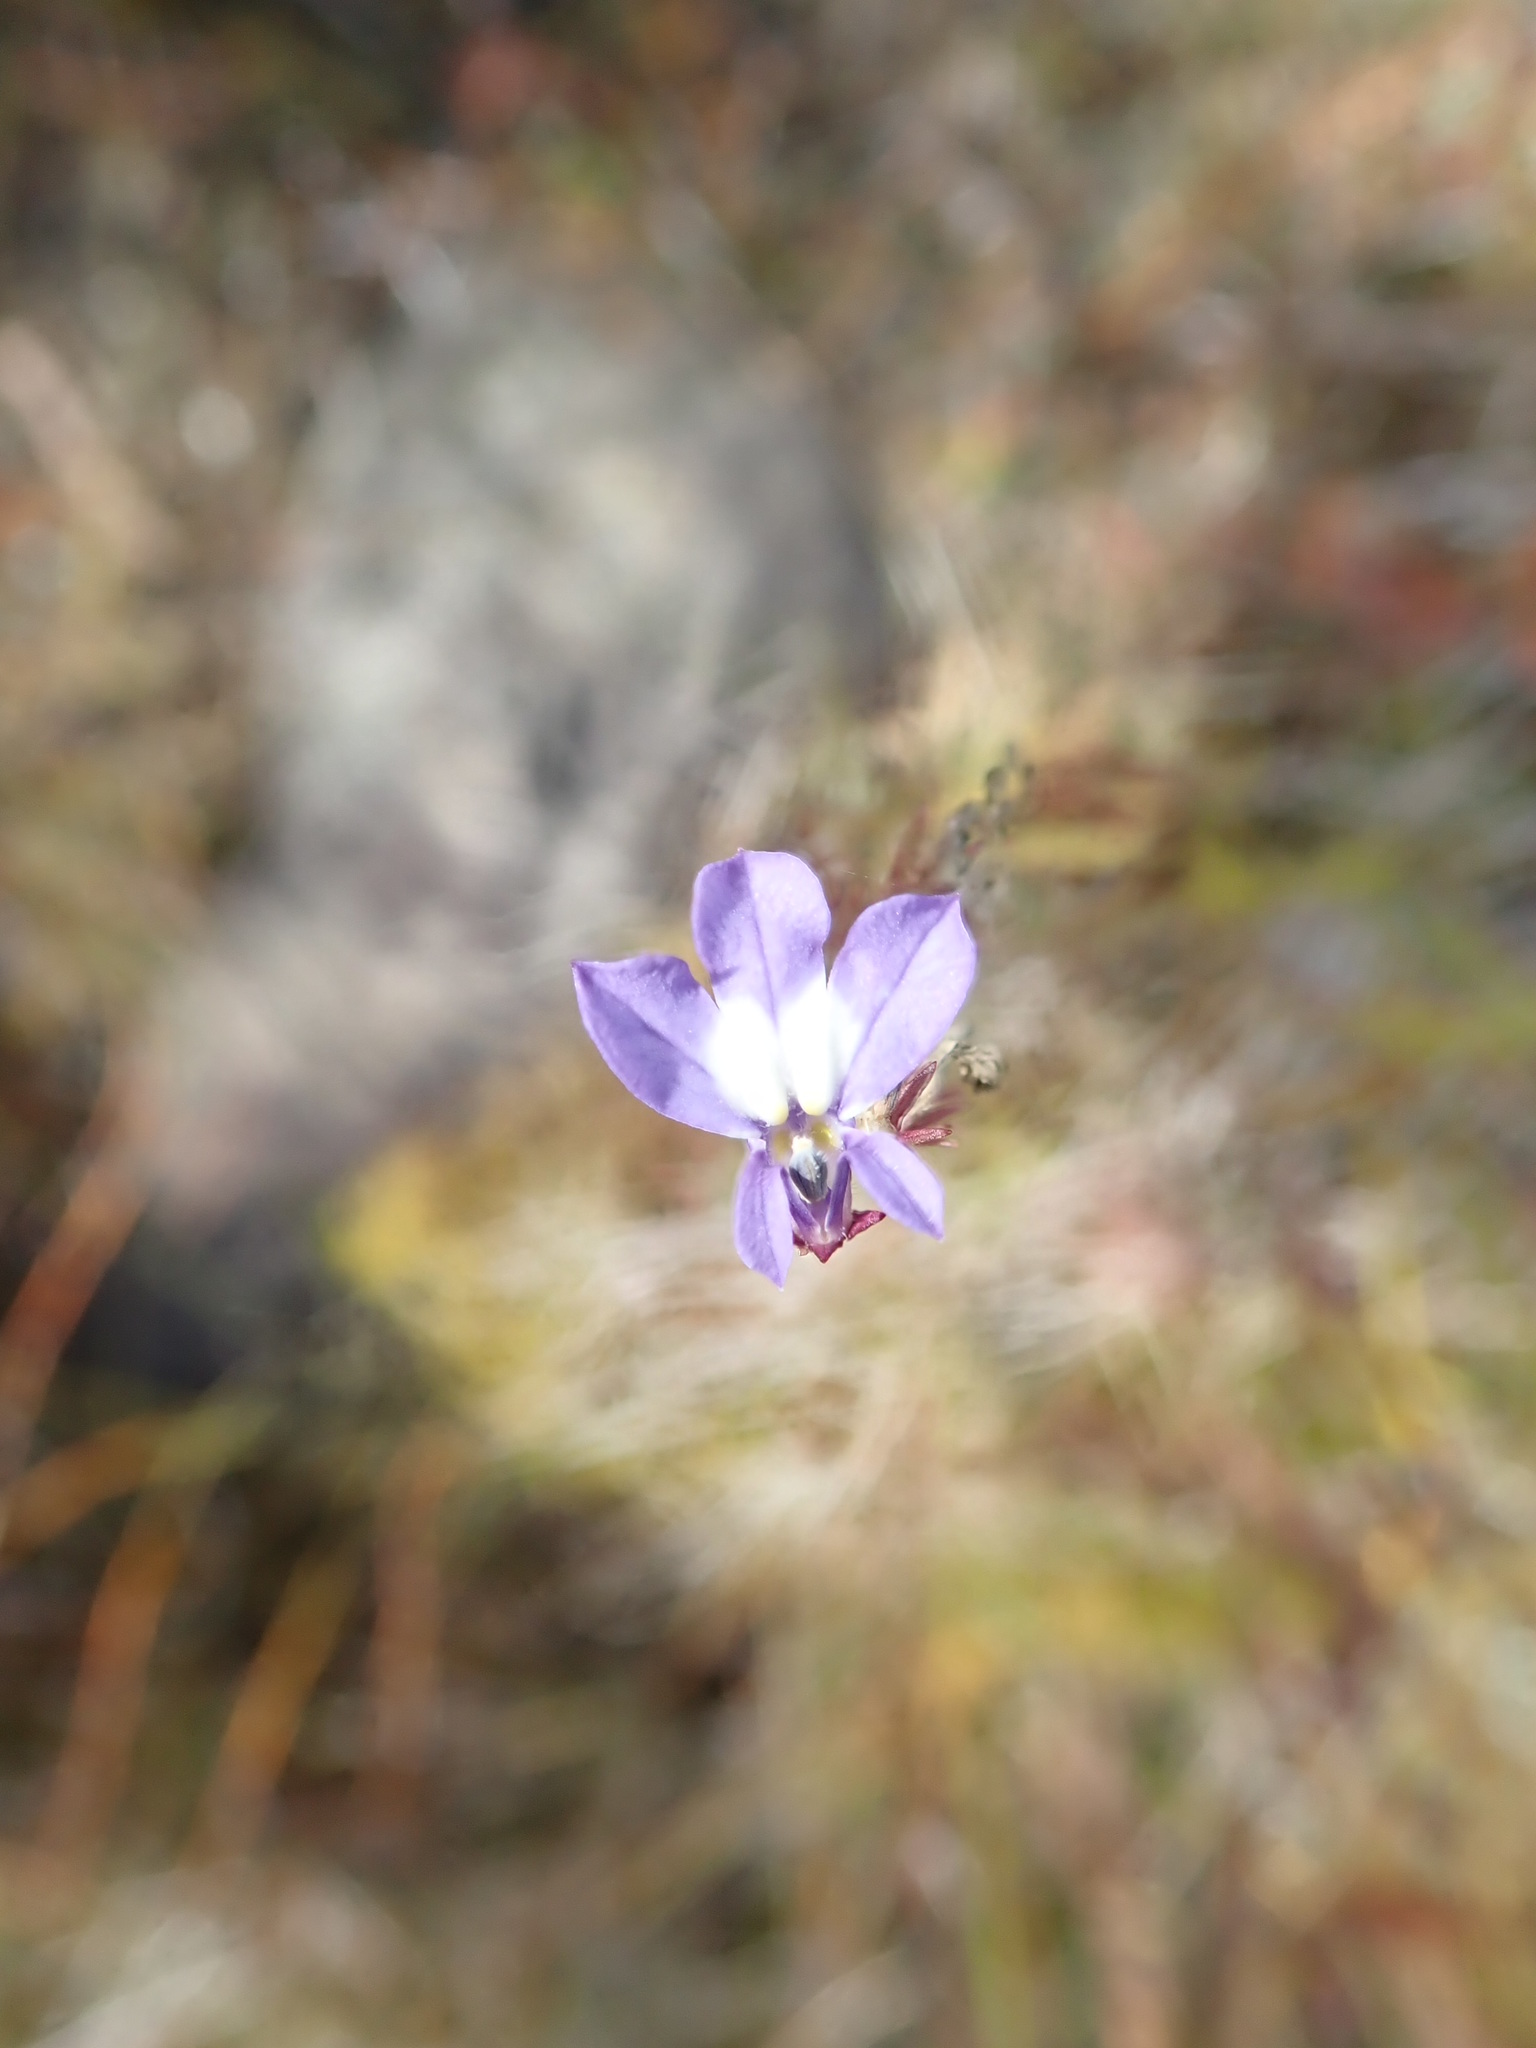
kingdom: Plantae
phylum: Tracheophyta
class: Magnoliopsida
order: Asterales
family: Campanulaceae
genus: Lobelia
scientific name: Lobelia kalmii
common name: Kalm's lobelia
